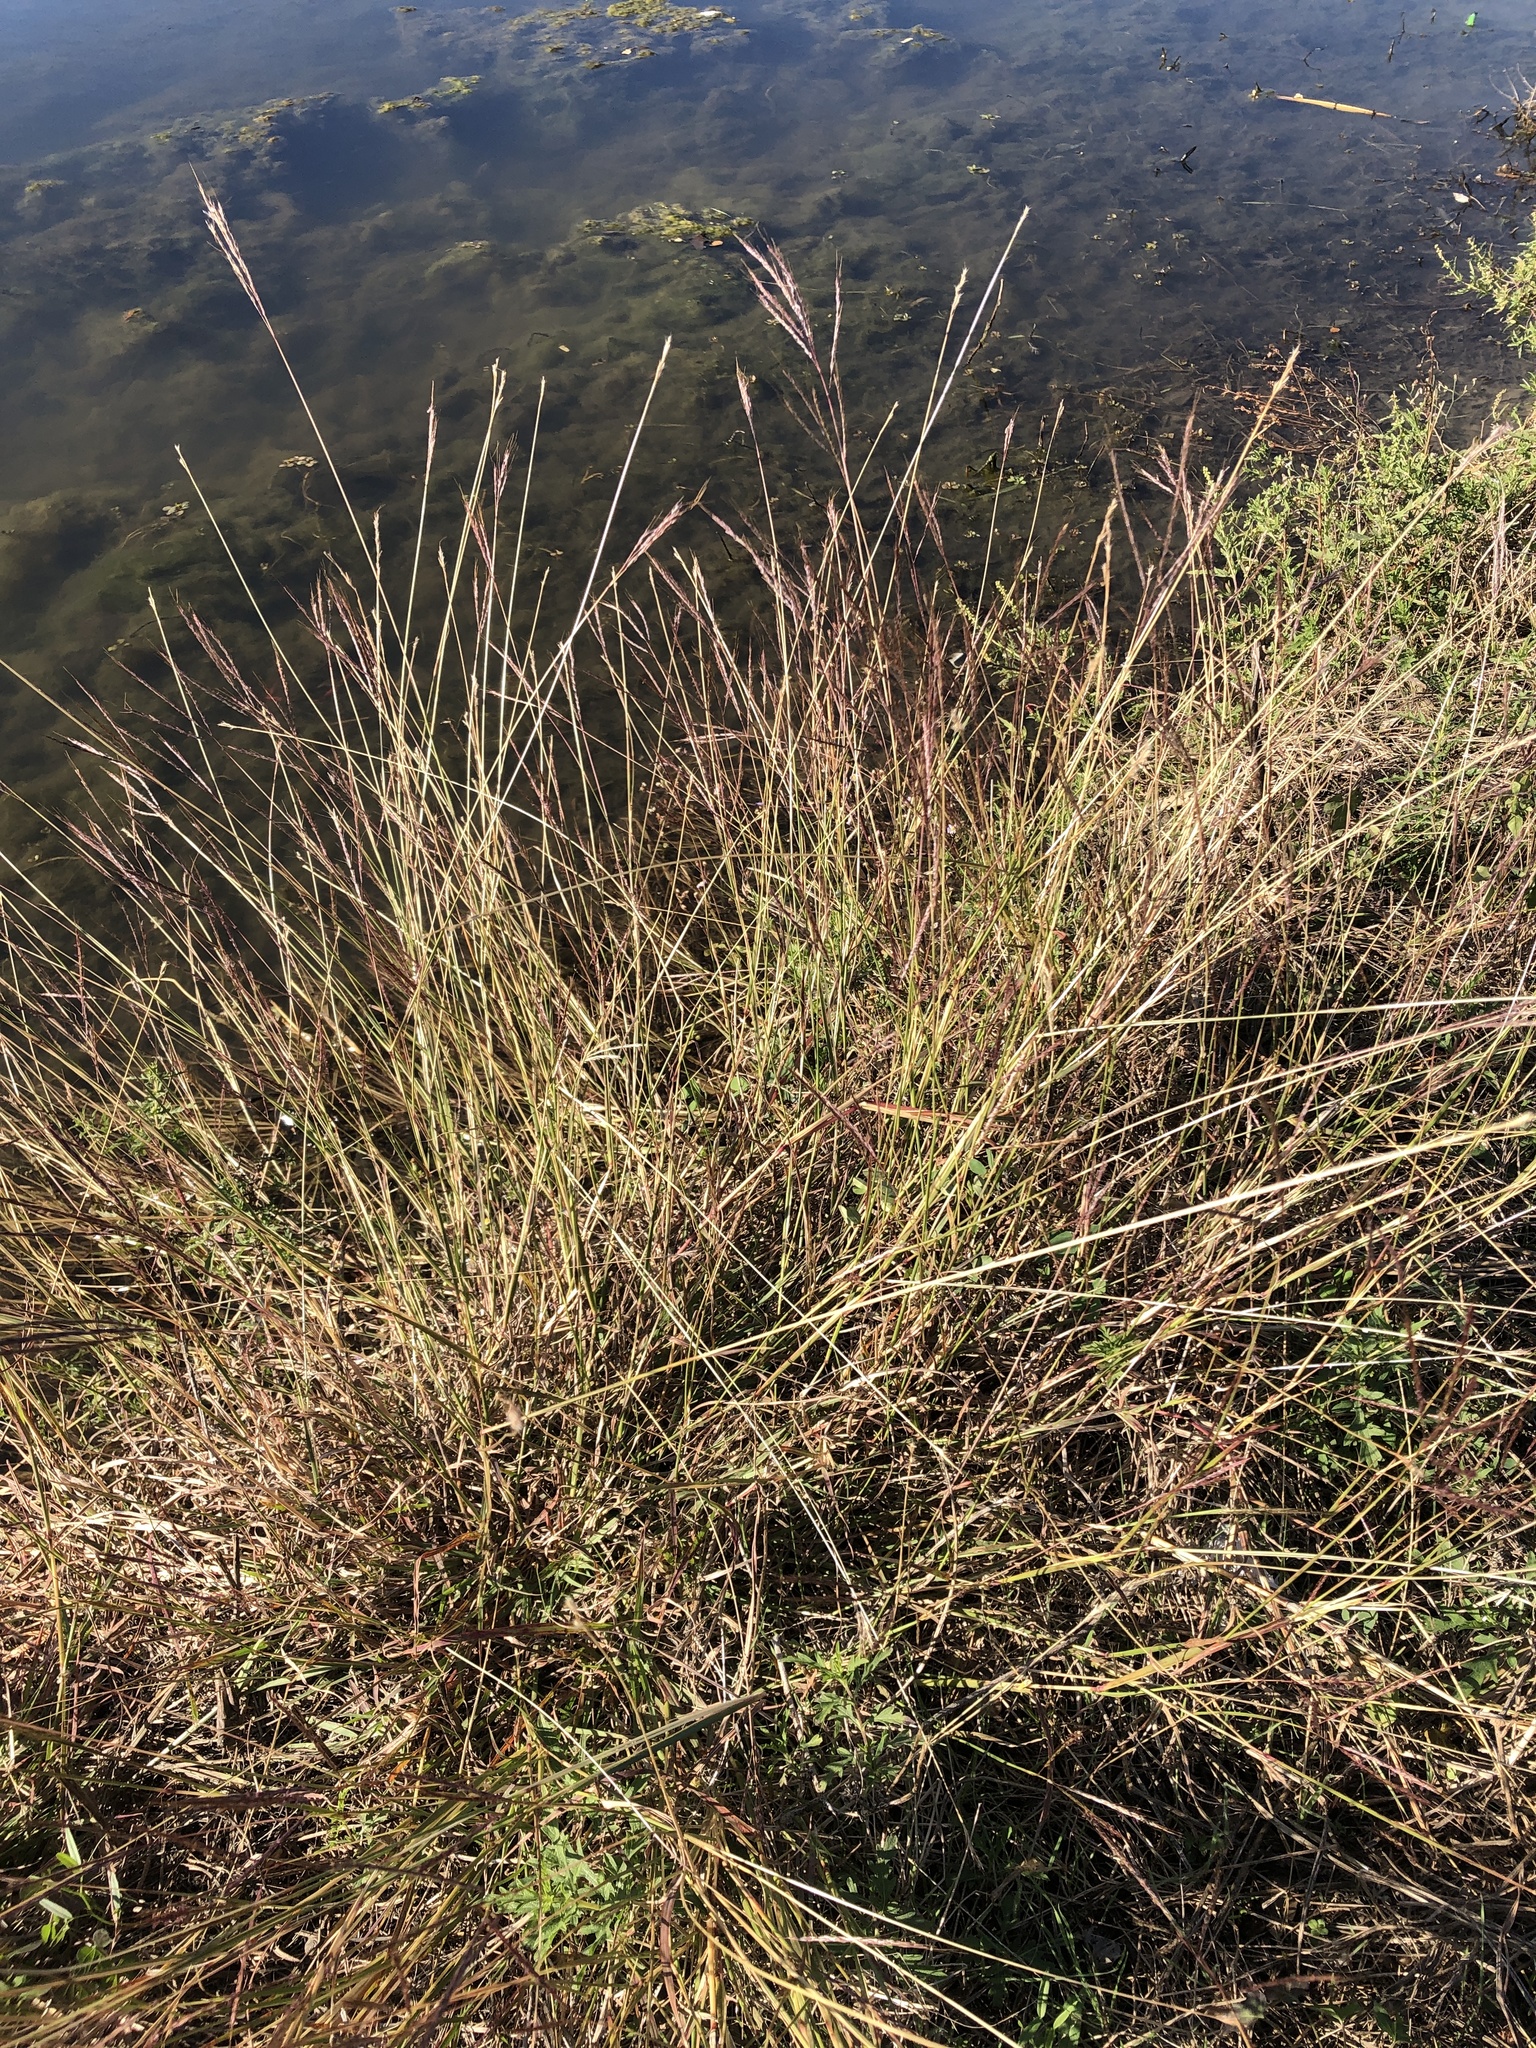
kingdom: Plantae
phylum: Tracheophyta
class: Liliopsida
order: Poales
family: Poaceae
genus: Bothriochloa
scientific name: Bothriochloa ischaemum
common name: Yellow bluestem
